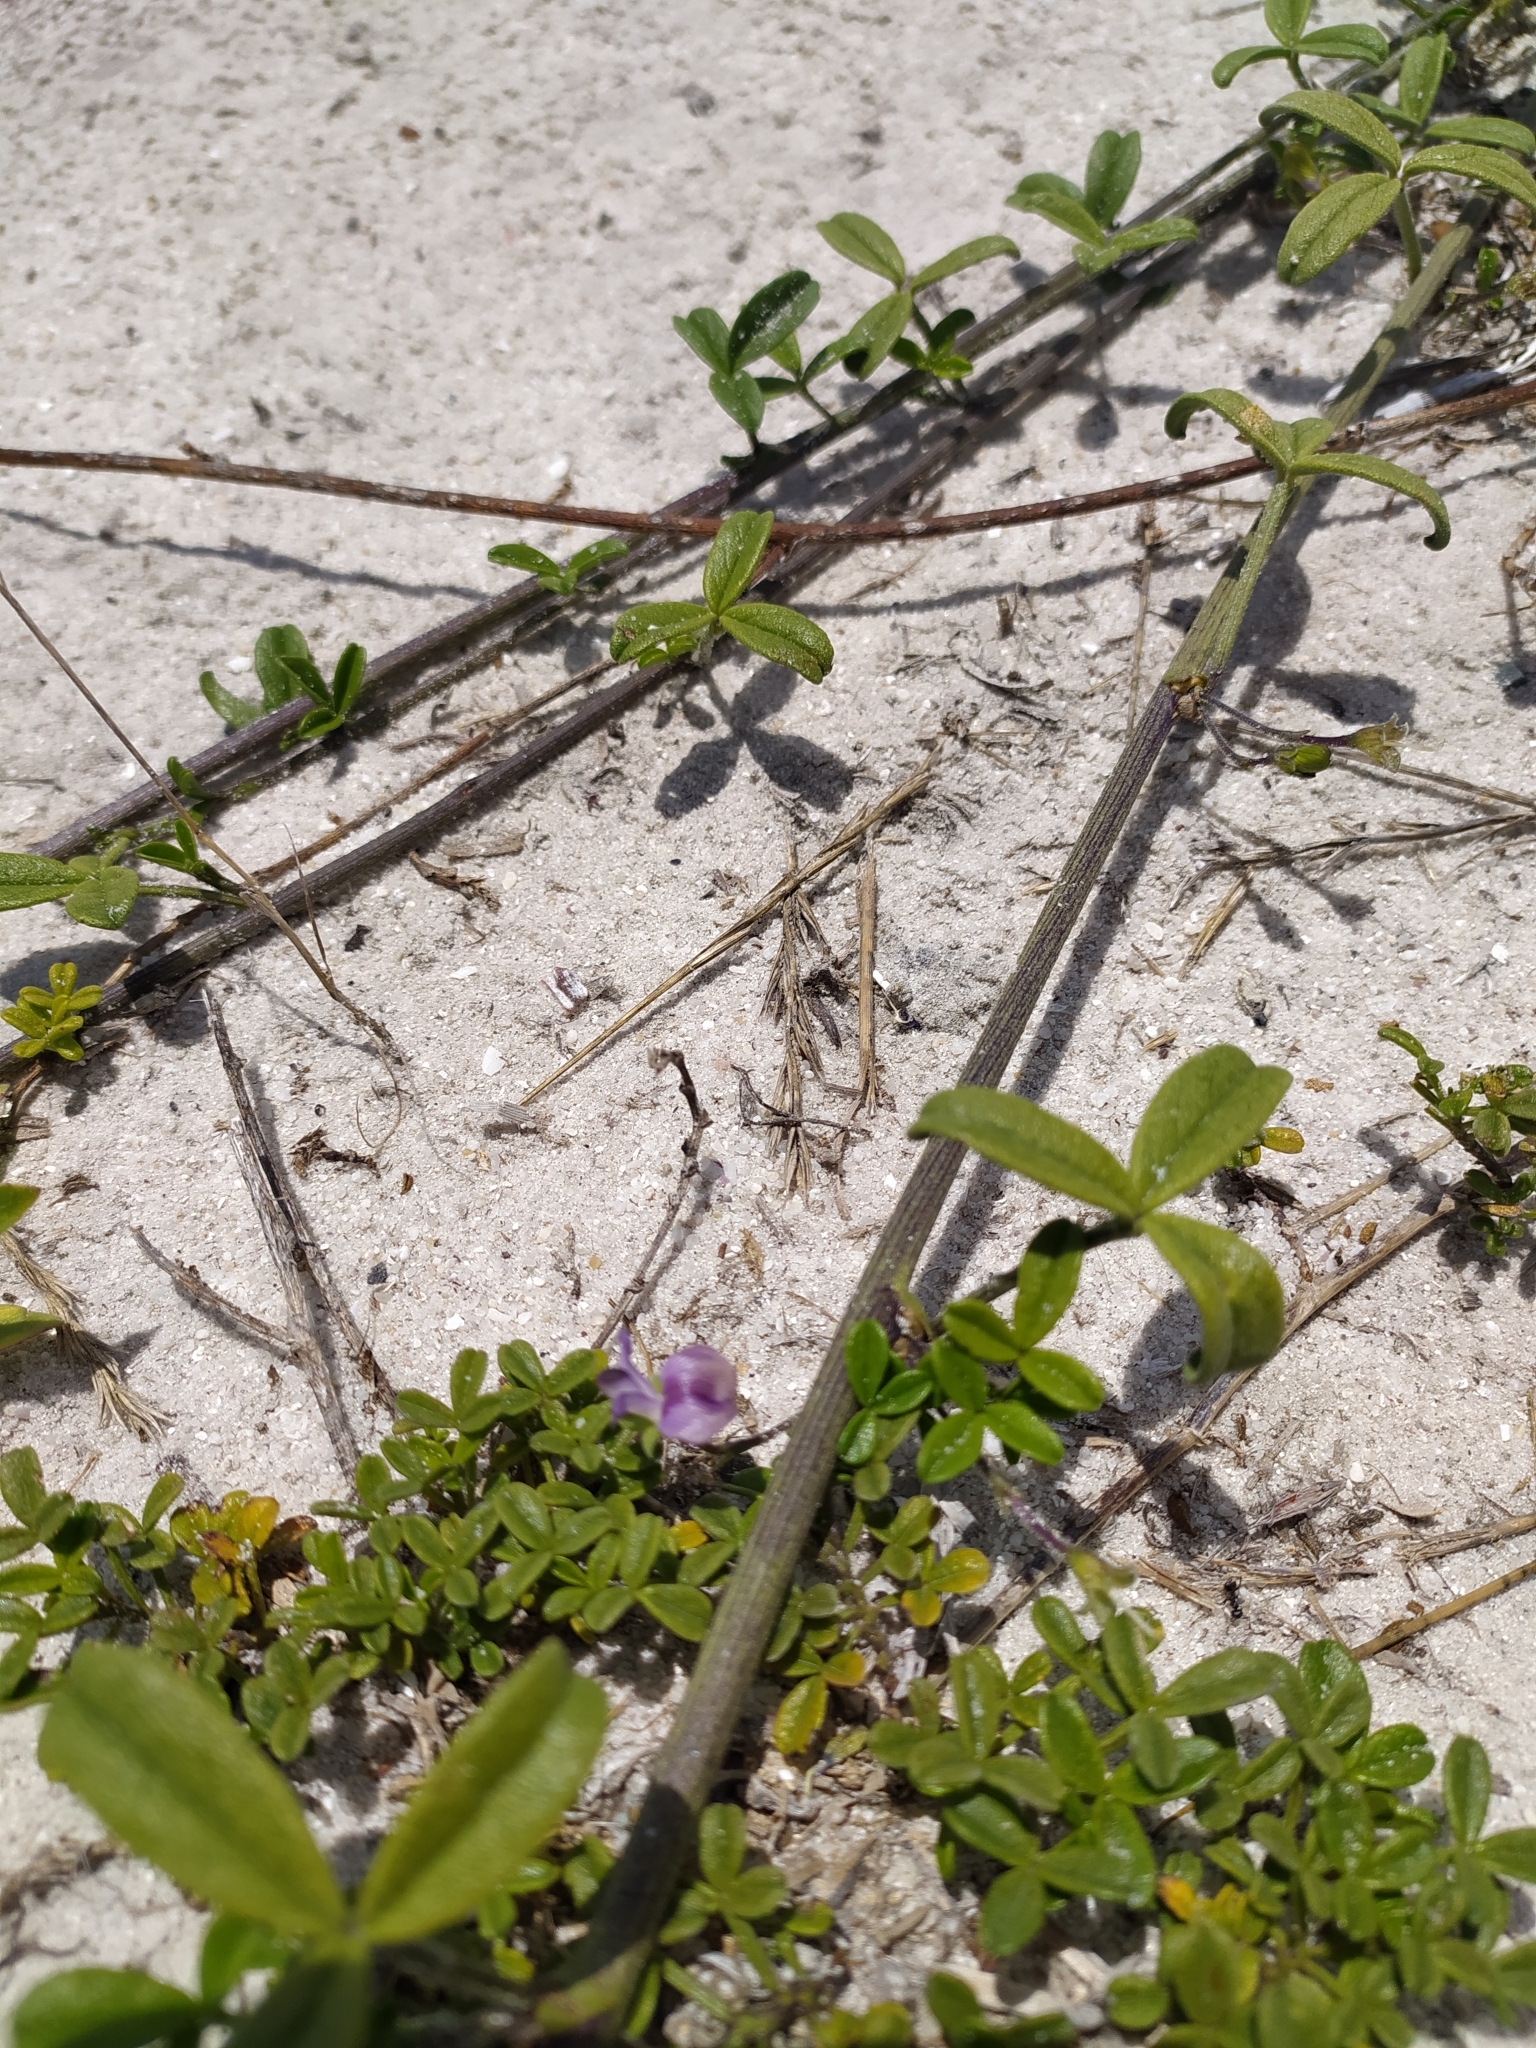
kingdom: Plantae
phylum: Tracheophyta
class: Magnoliopsida
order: Fabales
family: Fabaceae
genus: Psoralea
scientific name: Psoralea repens
